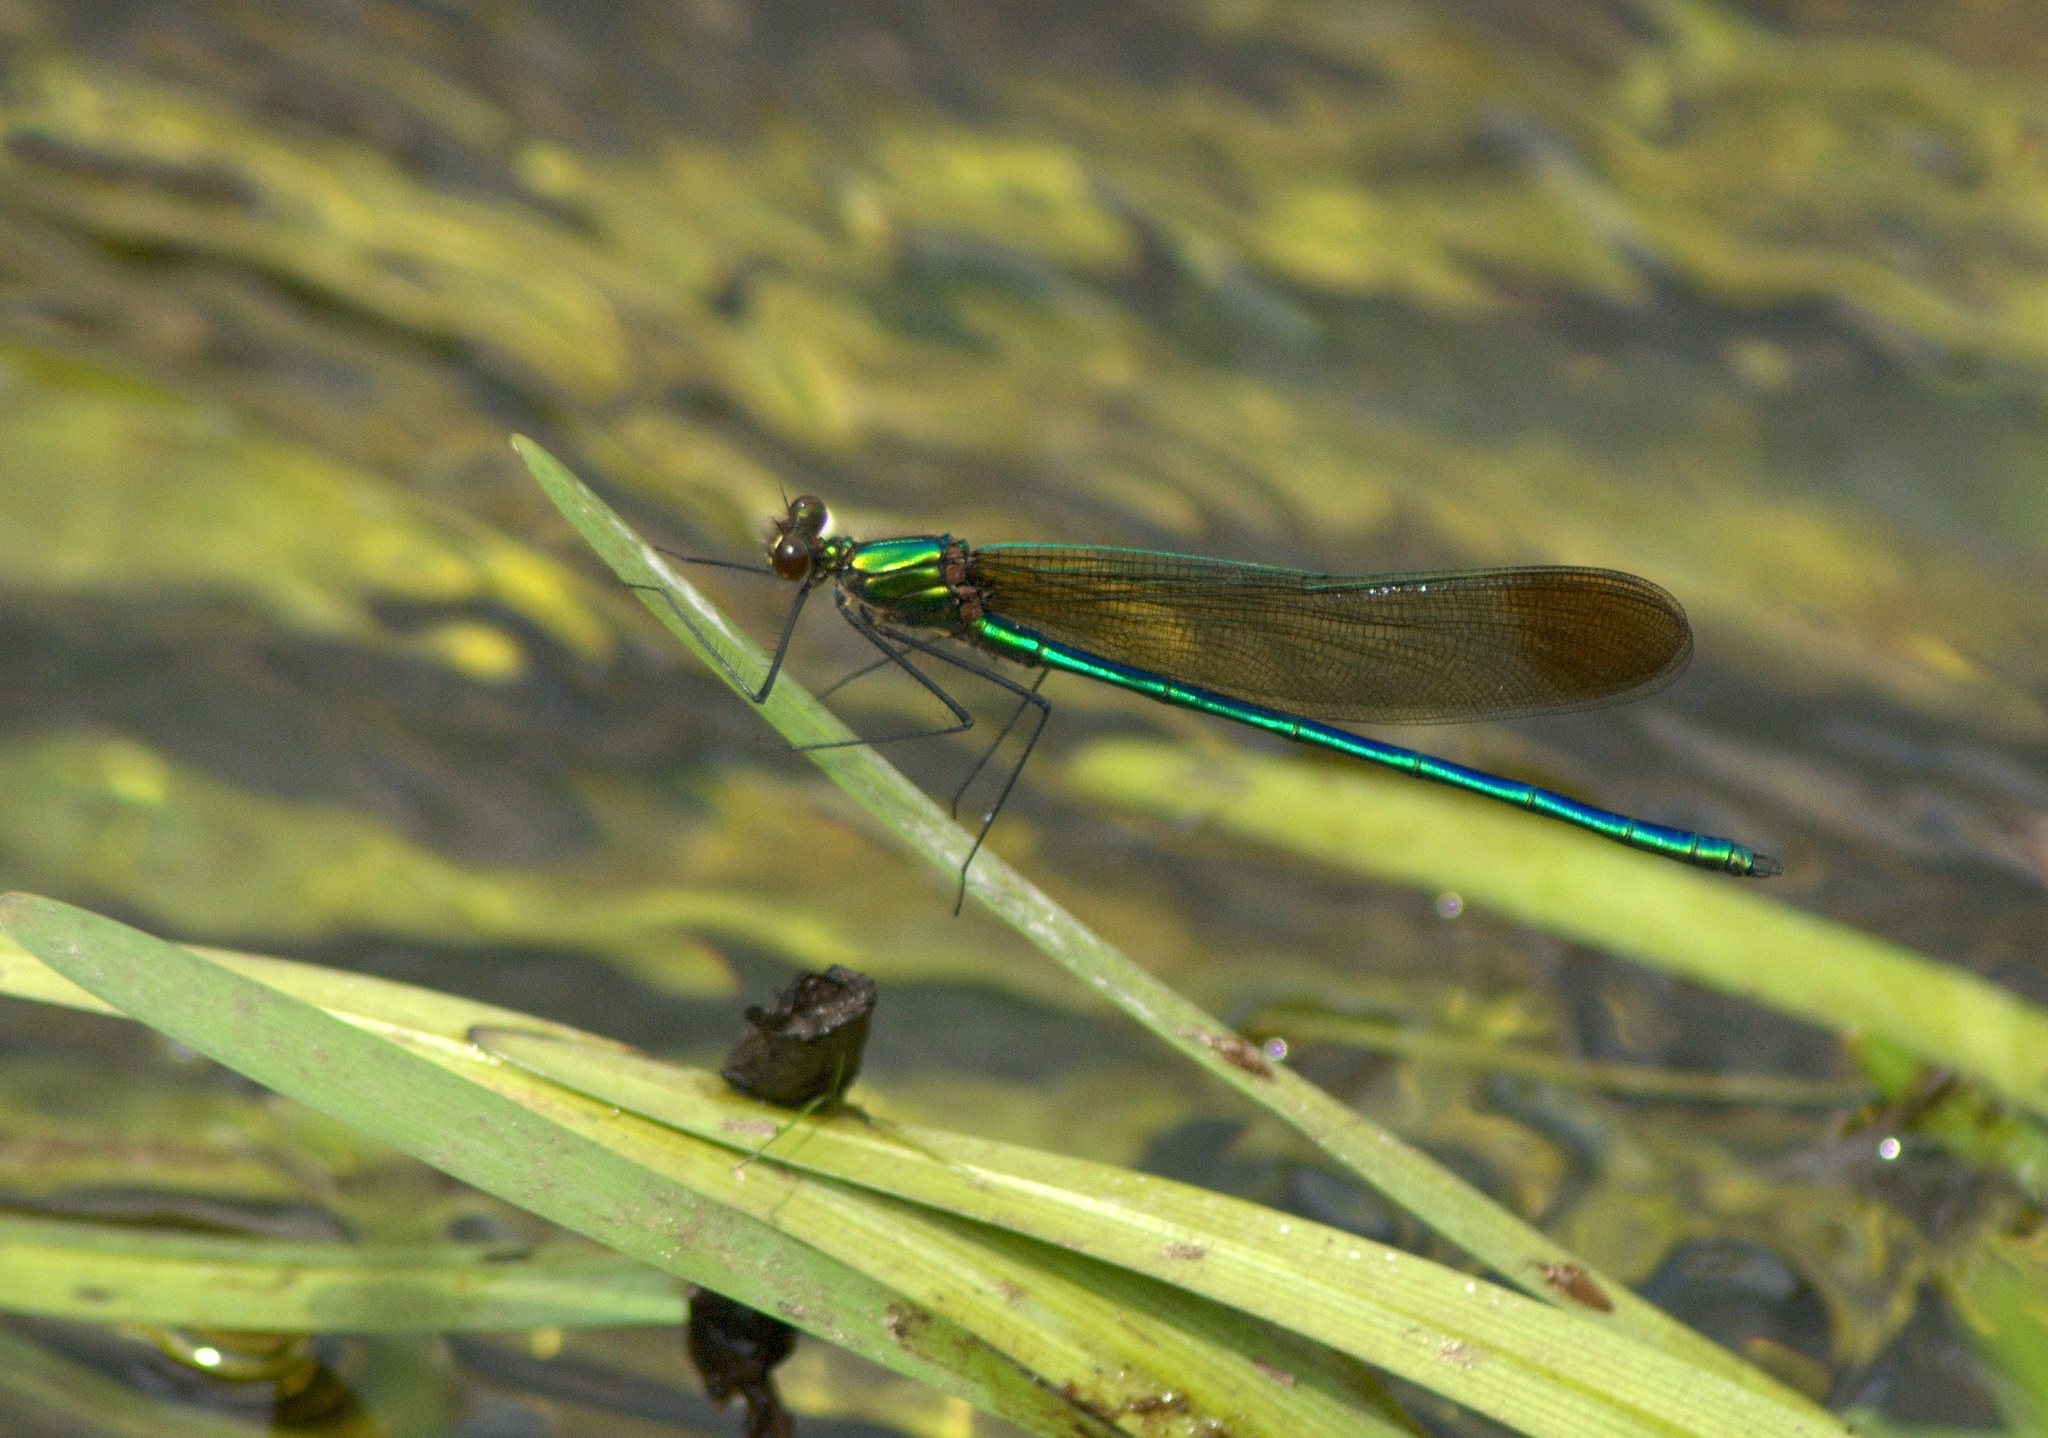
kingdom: Animalia
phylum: Arthropoda
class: Insecta
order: Odonata
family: Calopterygidae
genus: Calopteryx
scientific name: Calopteryx amata
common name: Superb jewelwing
